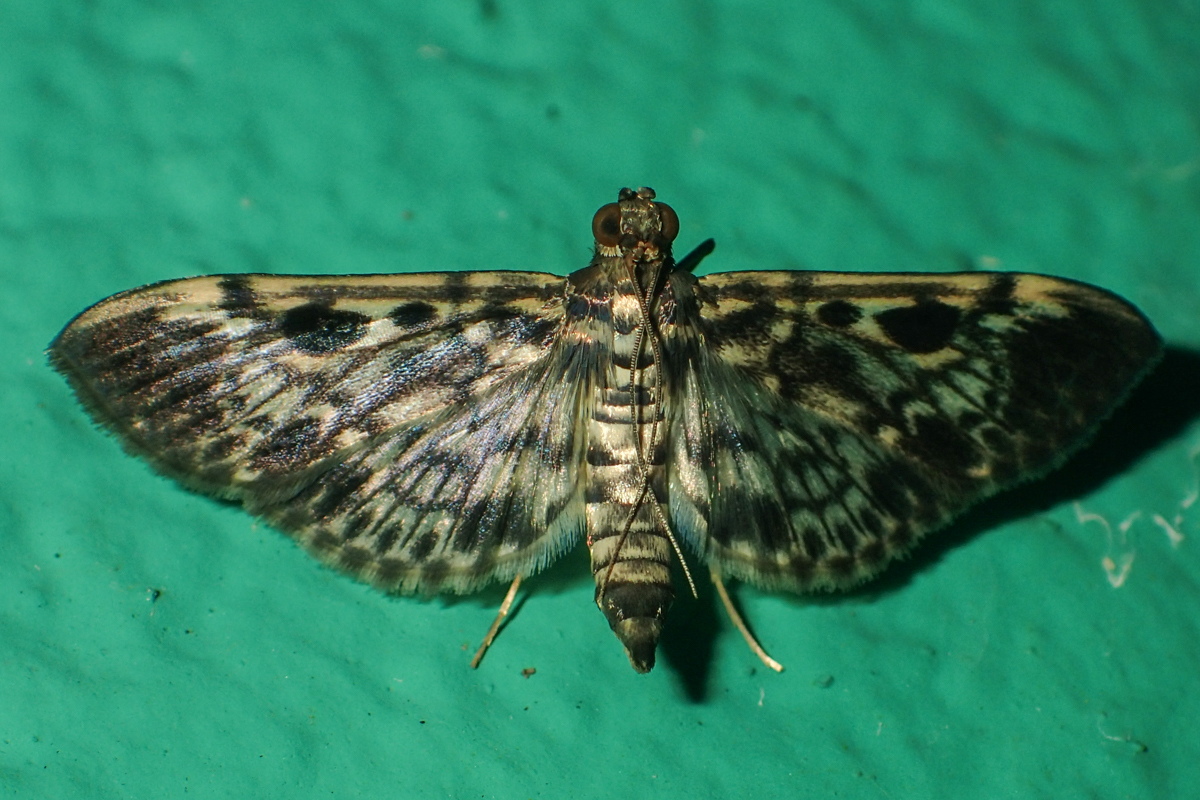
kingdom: Animalia
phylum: Arthropoda
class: Insecta
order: Lepidoptera
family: Crambidae
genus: Rhimphaliodes
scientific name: Rhimphaliodes macrostigma
